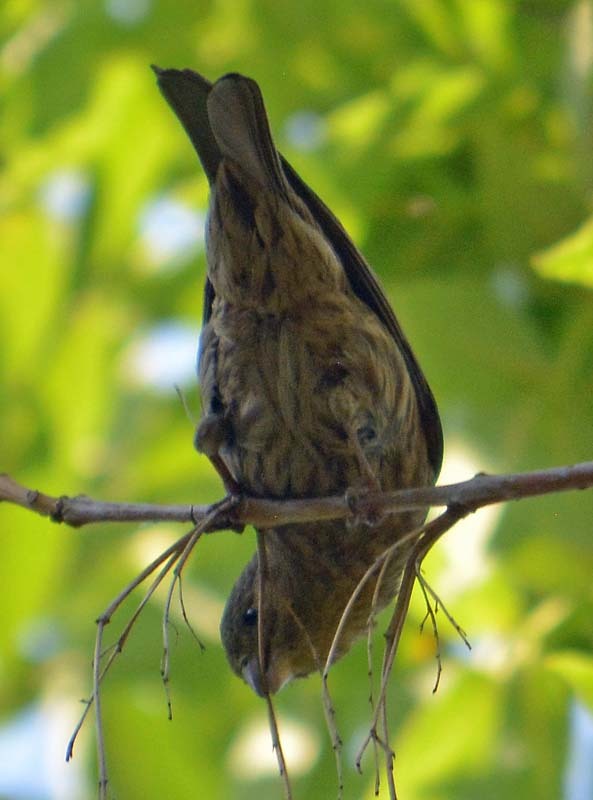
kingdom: Animalia
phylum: Chordata
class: Aves
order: Passeriformes
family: Fringillidae
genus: Haemorhous
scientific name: Haemorhous mexicanus
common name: House finch
